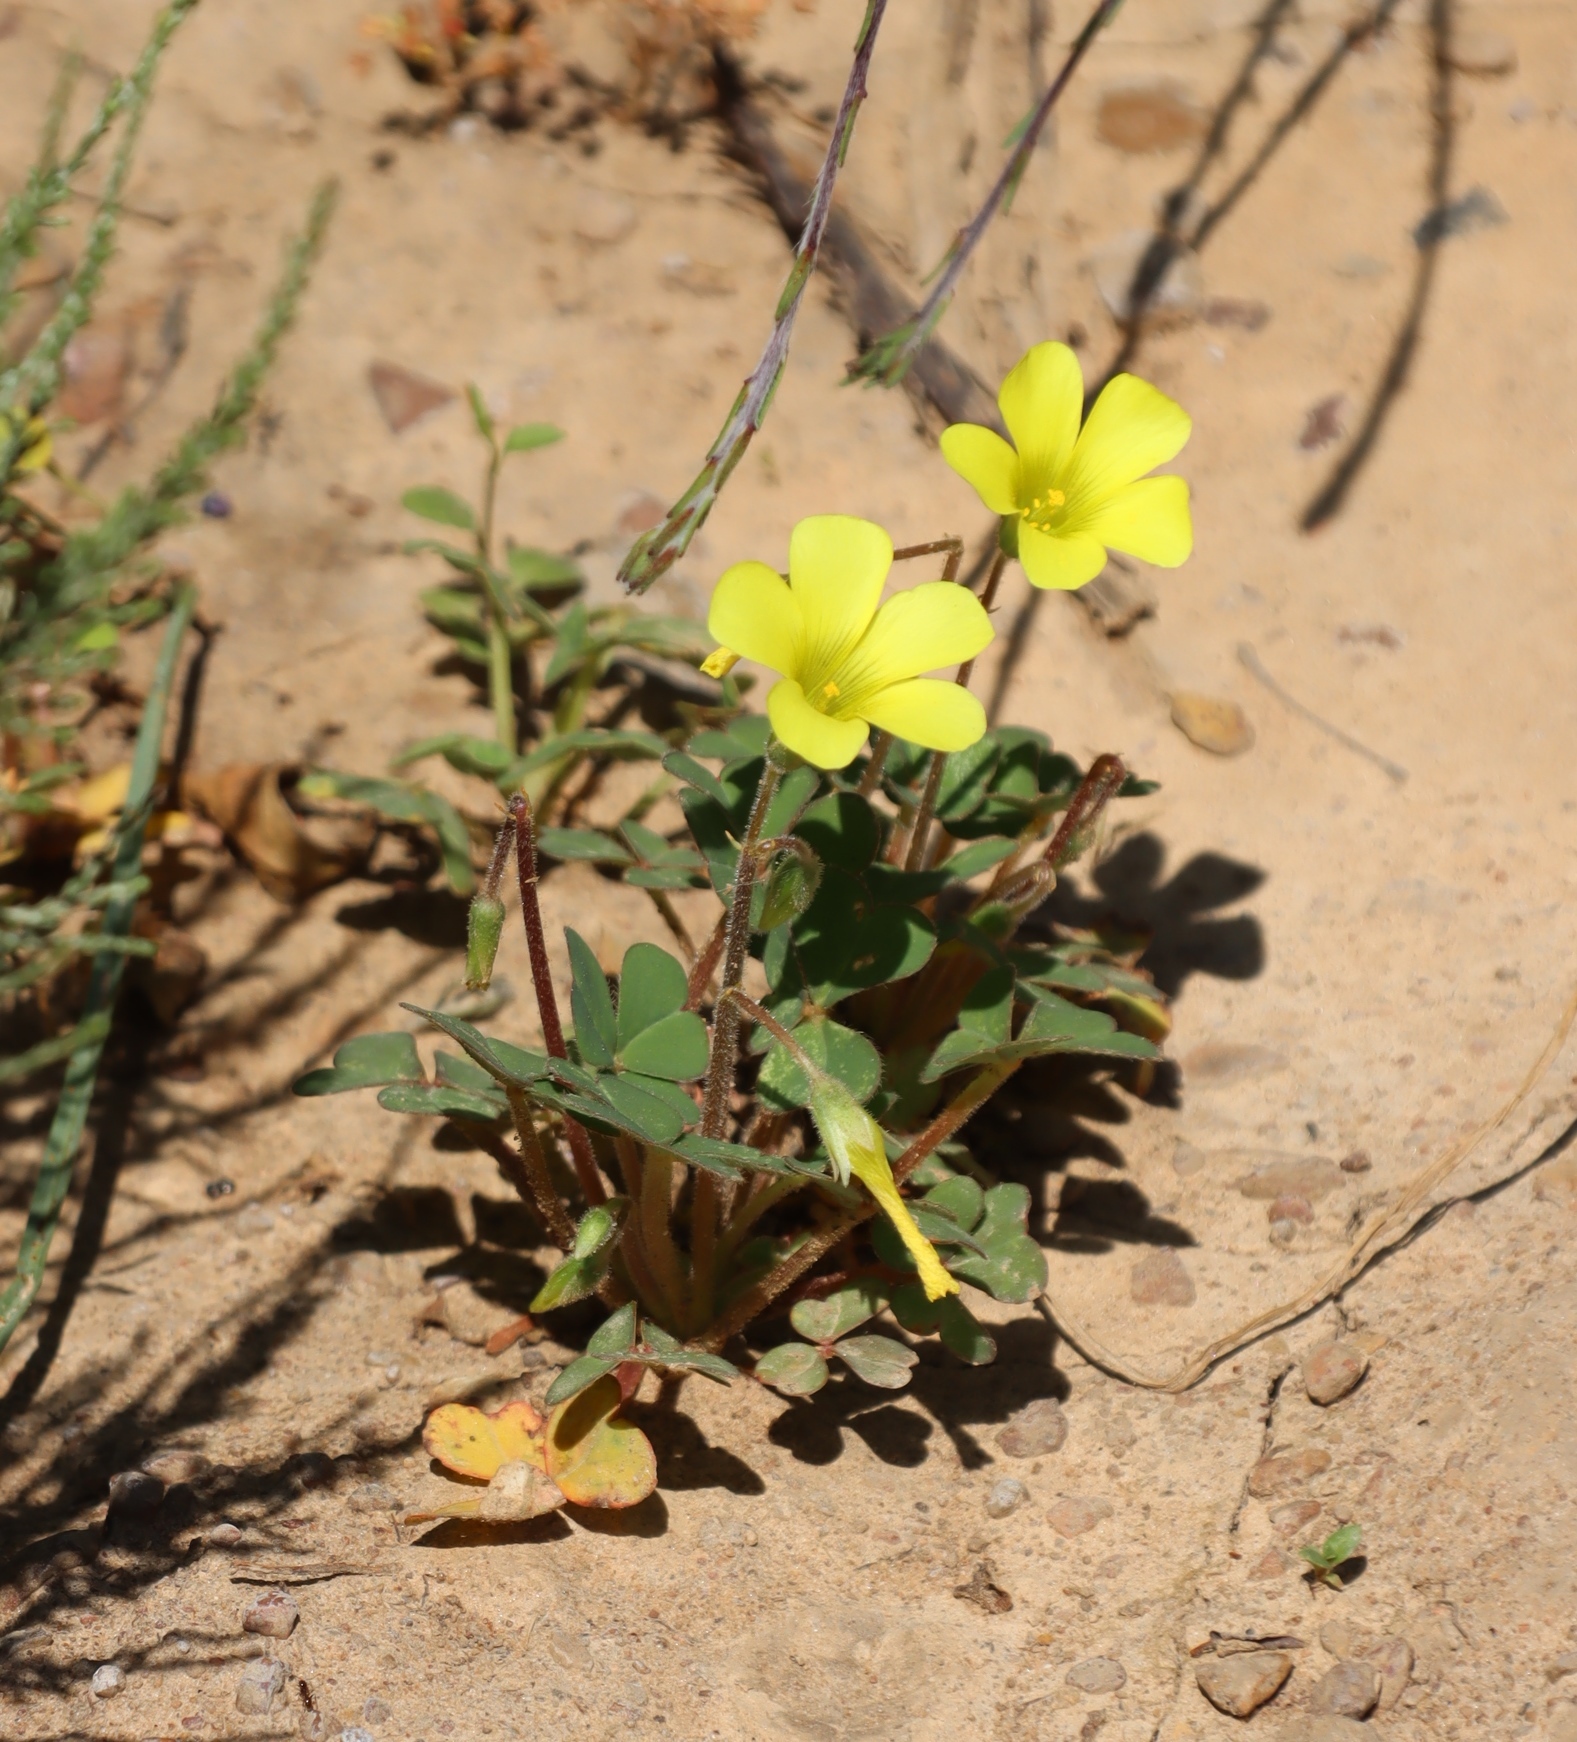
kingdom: Plantae
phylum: Tracheophyta
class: Magnoliopsida
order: Oxalidales
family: Oxalidaceae
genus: Oxalis
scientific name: Oxalis compressa
